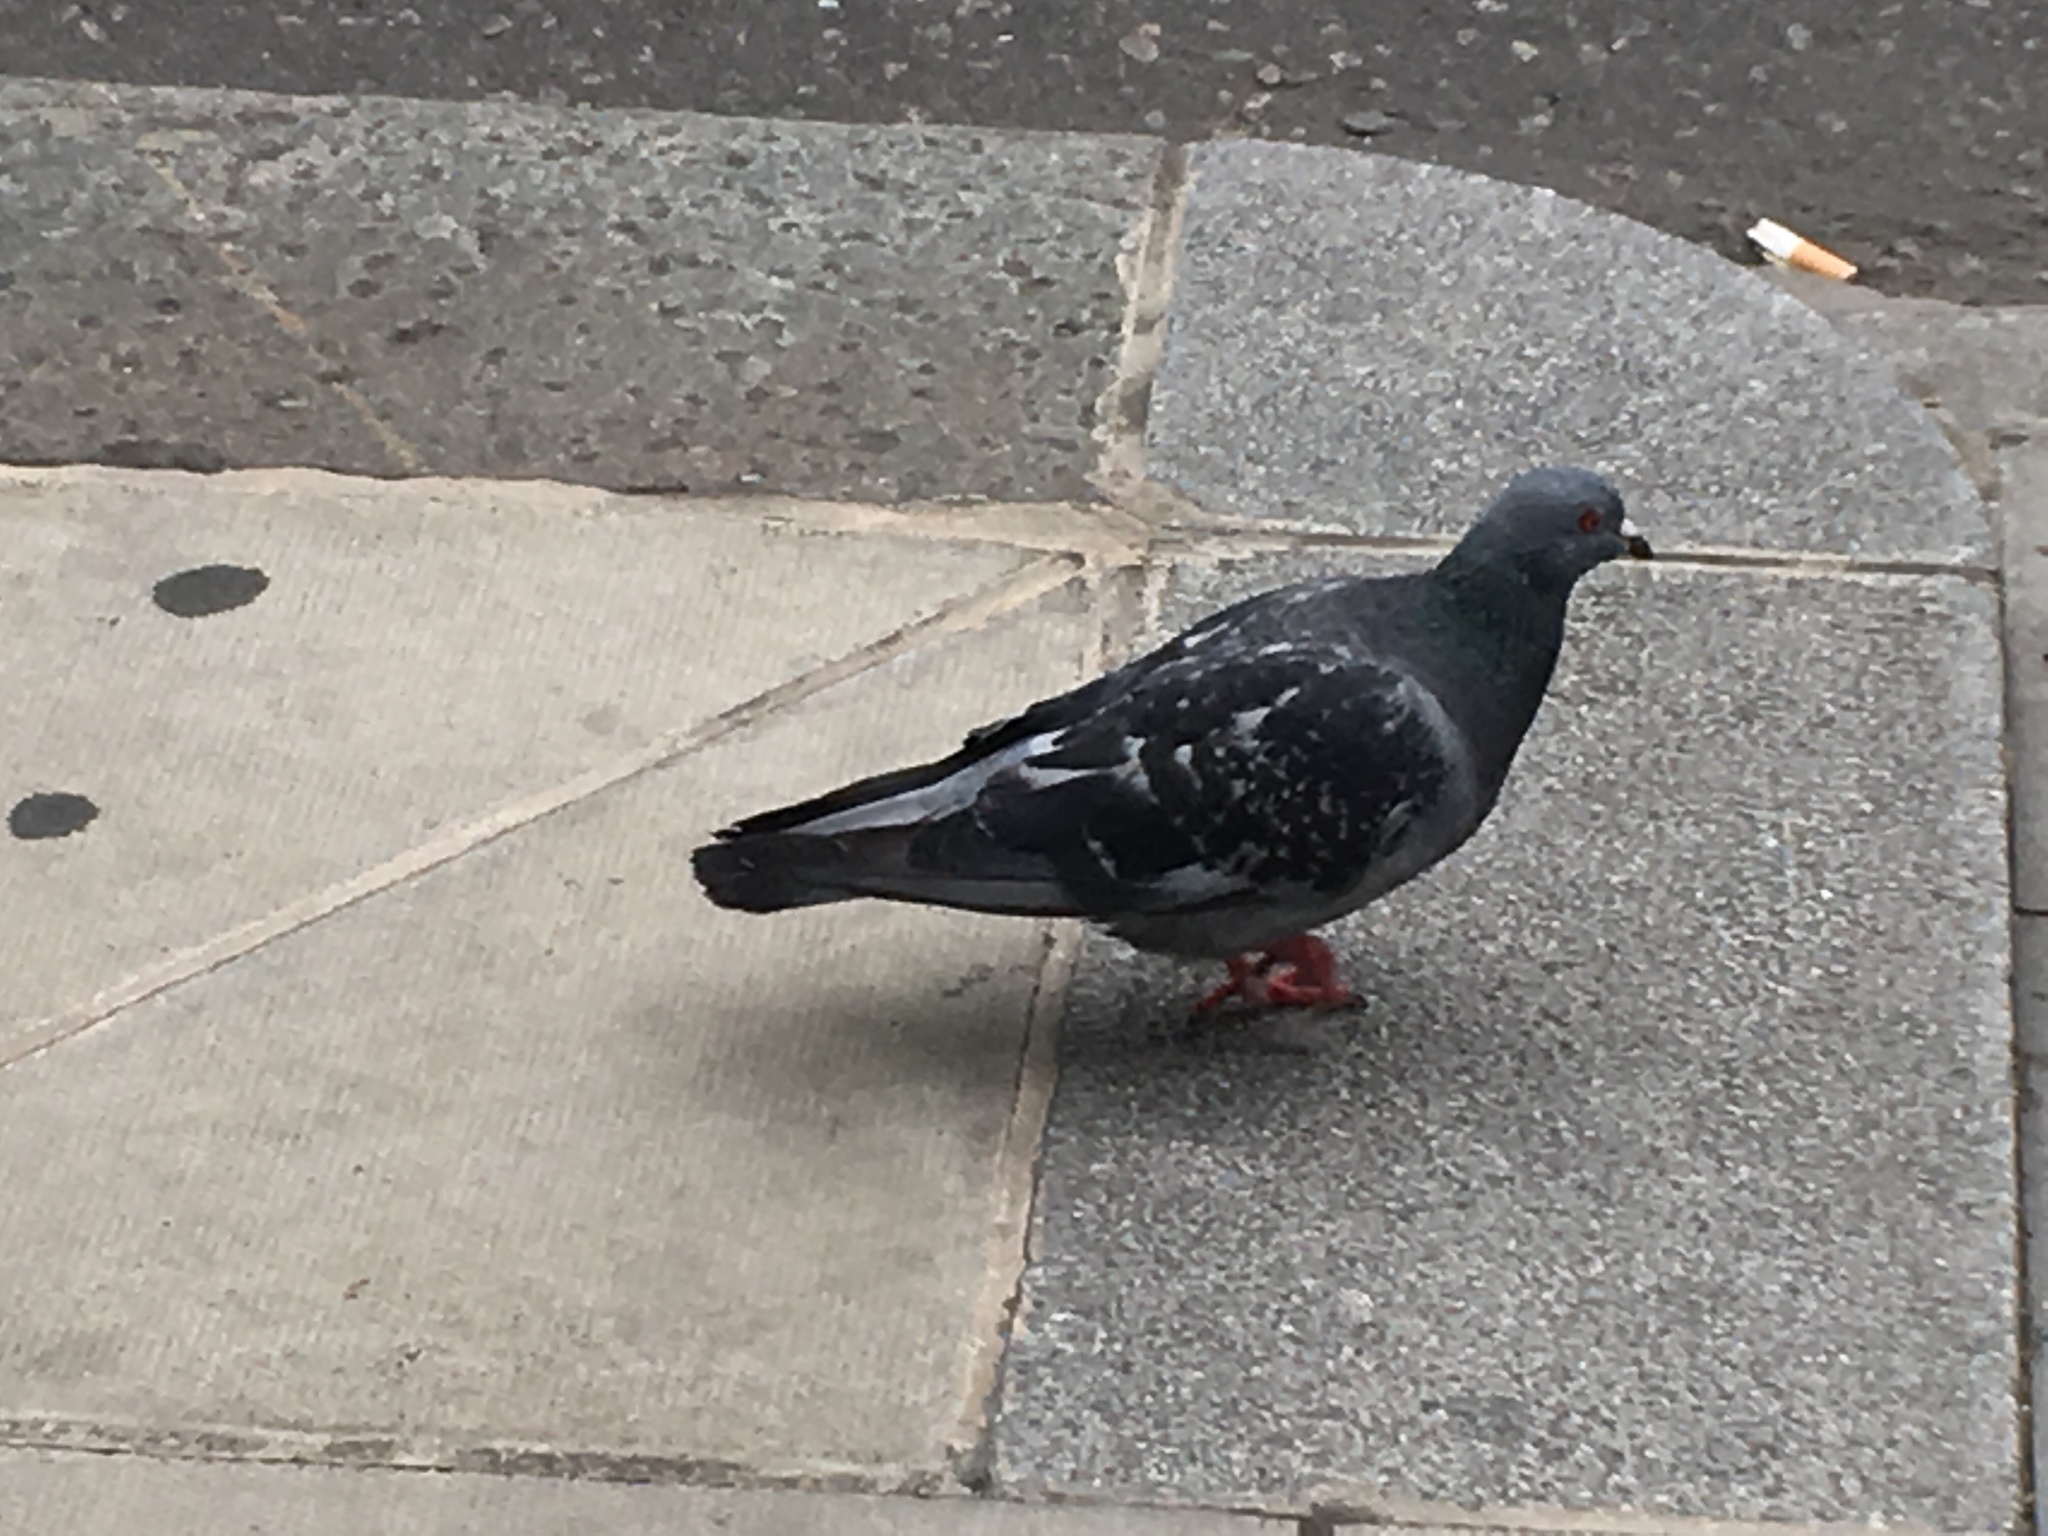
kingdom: Animalia
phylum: Chordata
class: Aves
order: Columbiformes
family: Columbidae
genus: Columba
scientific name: Columba livia
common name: Rock pigeon
